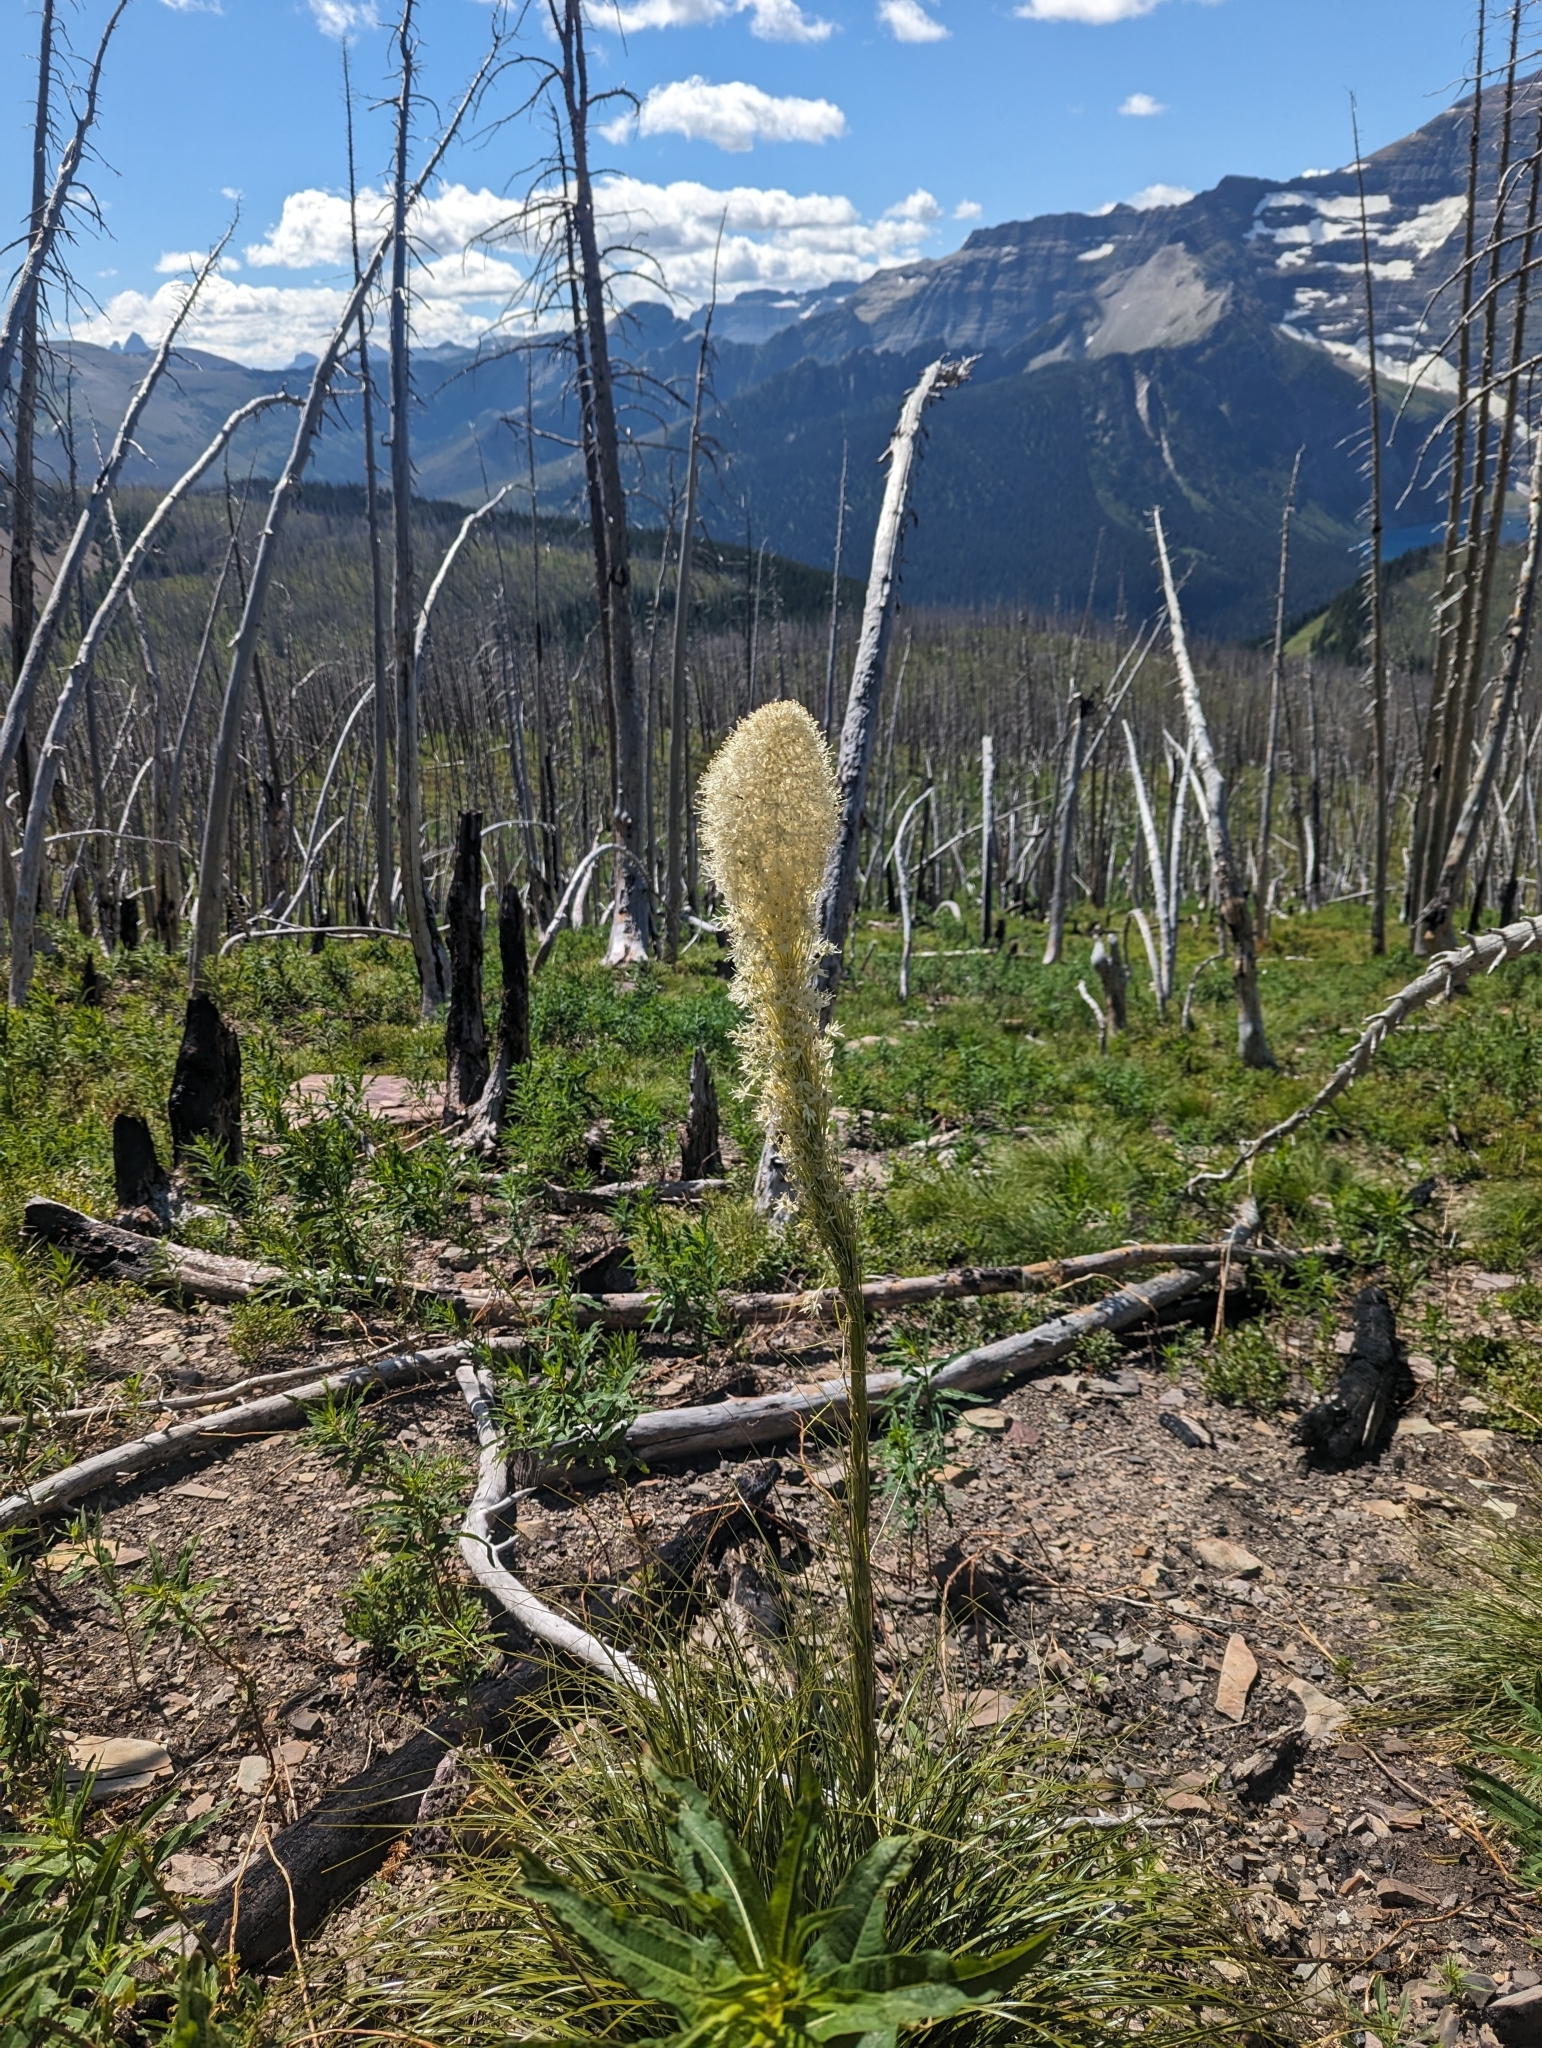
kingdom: Plantae
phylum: Tracheophyta
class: Liliopsida
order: Liliales
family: Melanthiaceae
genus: Xerophyllum
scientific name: Xerophyllum tenax
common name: Bear-grass
